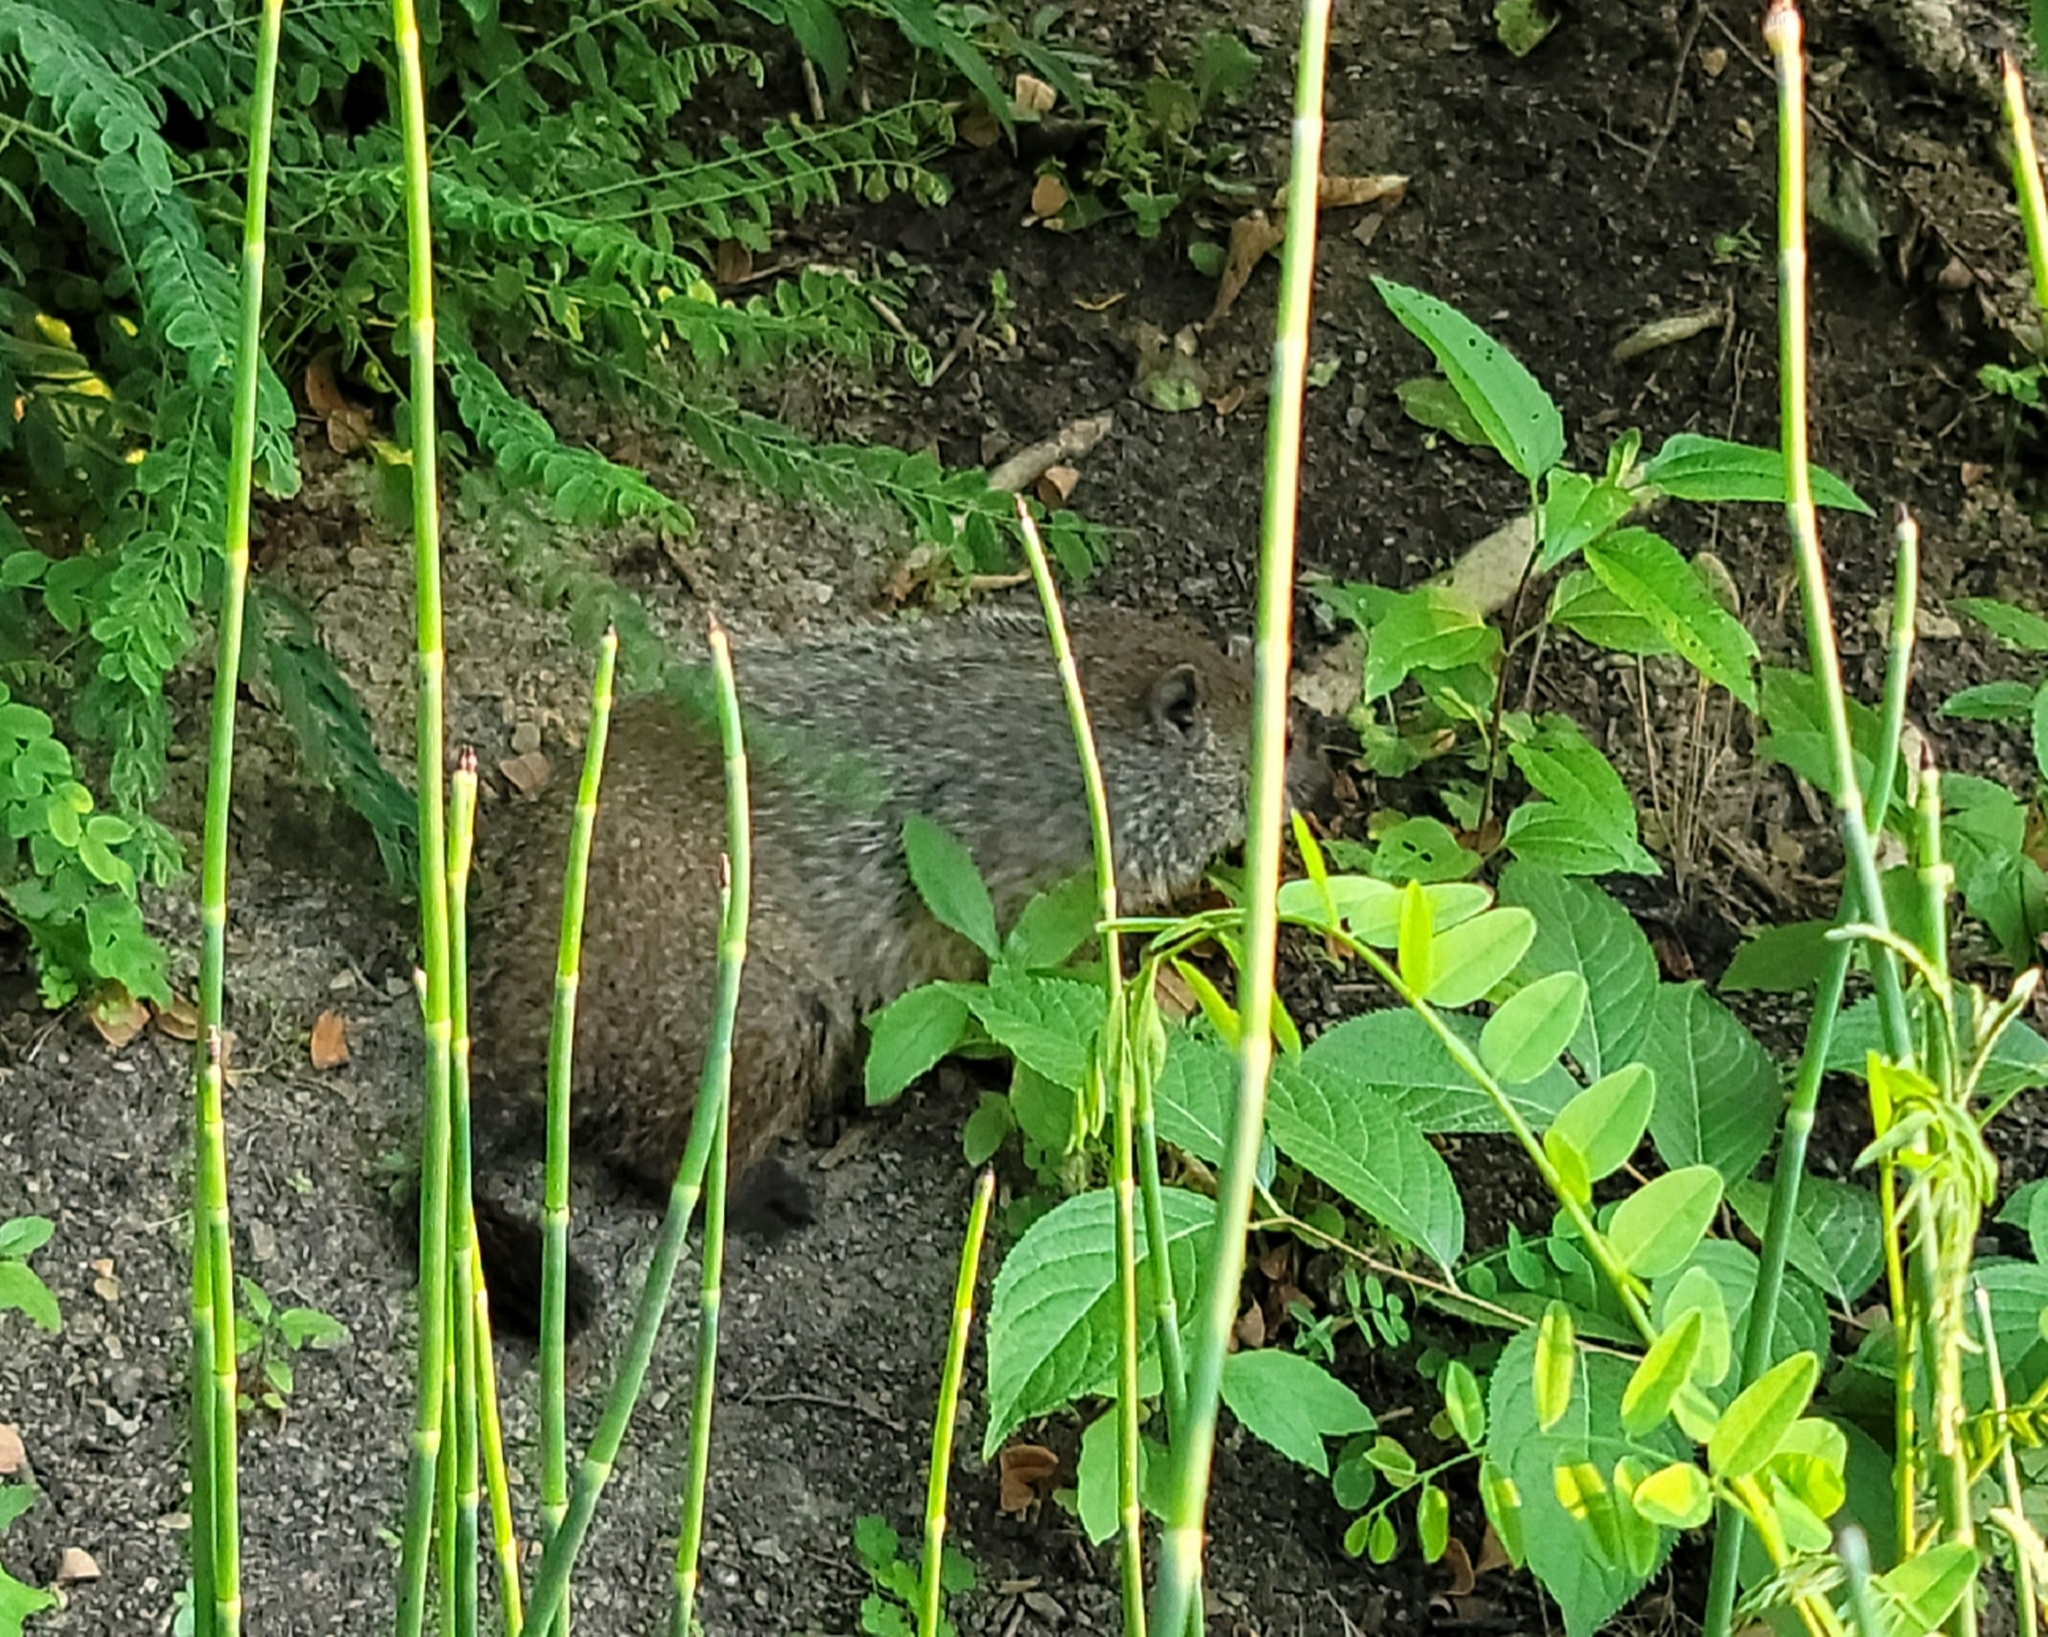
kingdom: Animalia
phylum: Chordata
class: Mammalia
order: Rodentia
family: Sciuridae
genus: Marmota
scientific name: Marmota monax
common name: Groundhog
